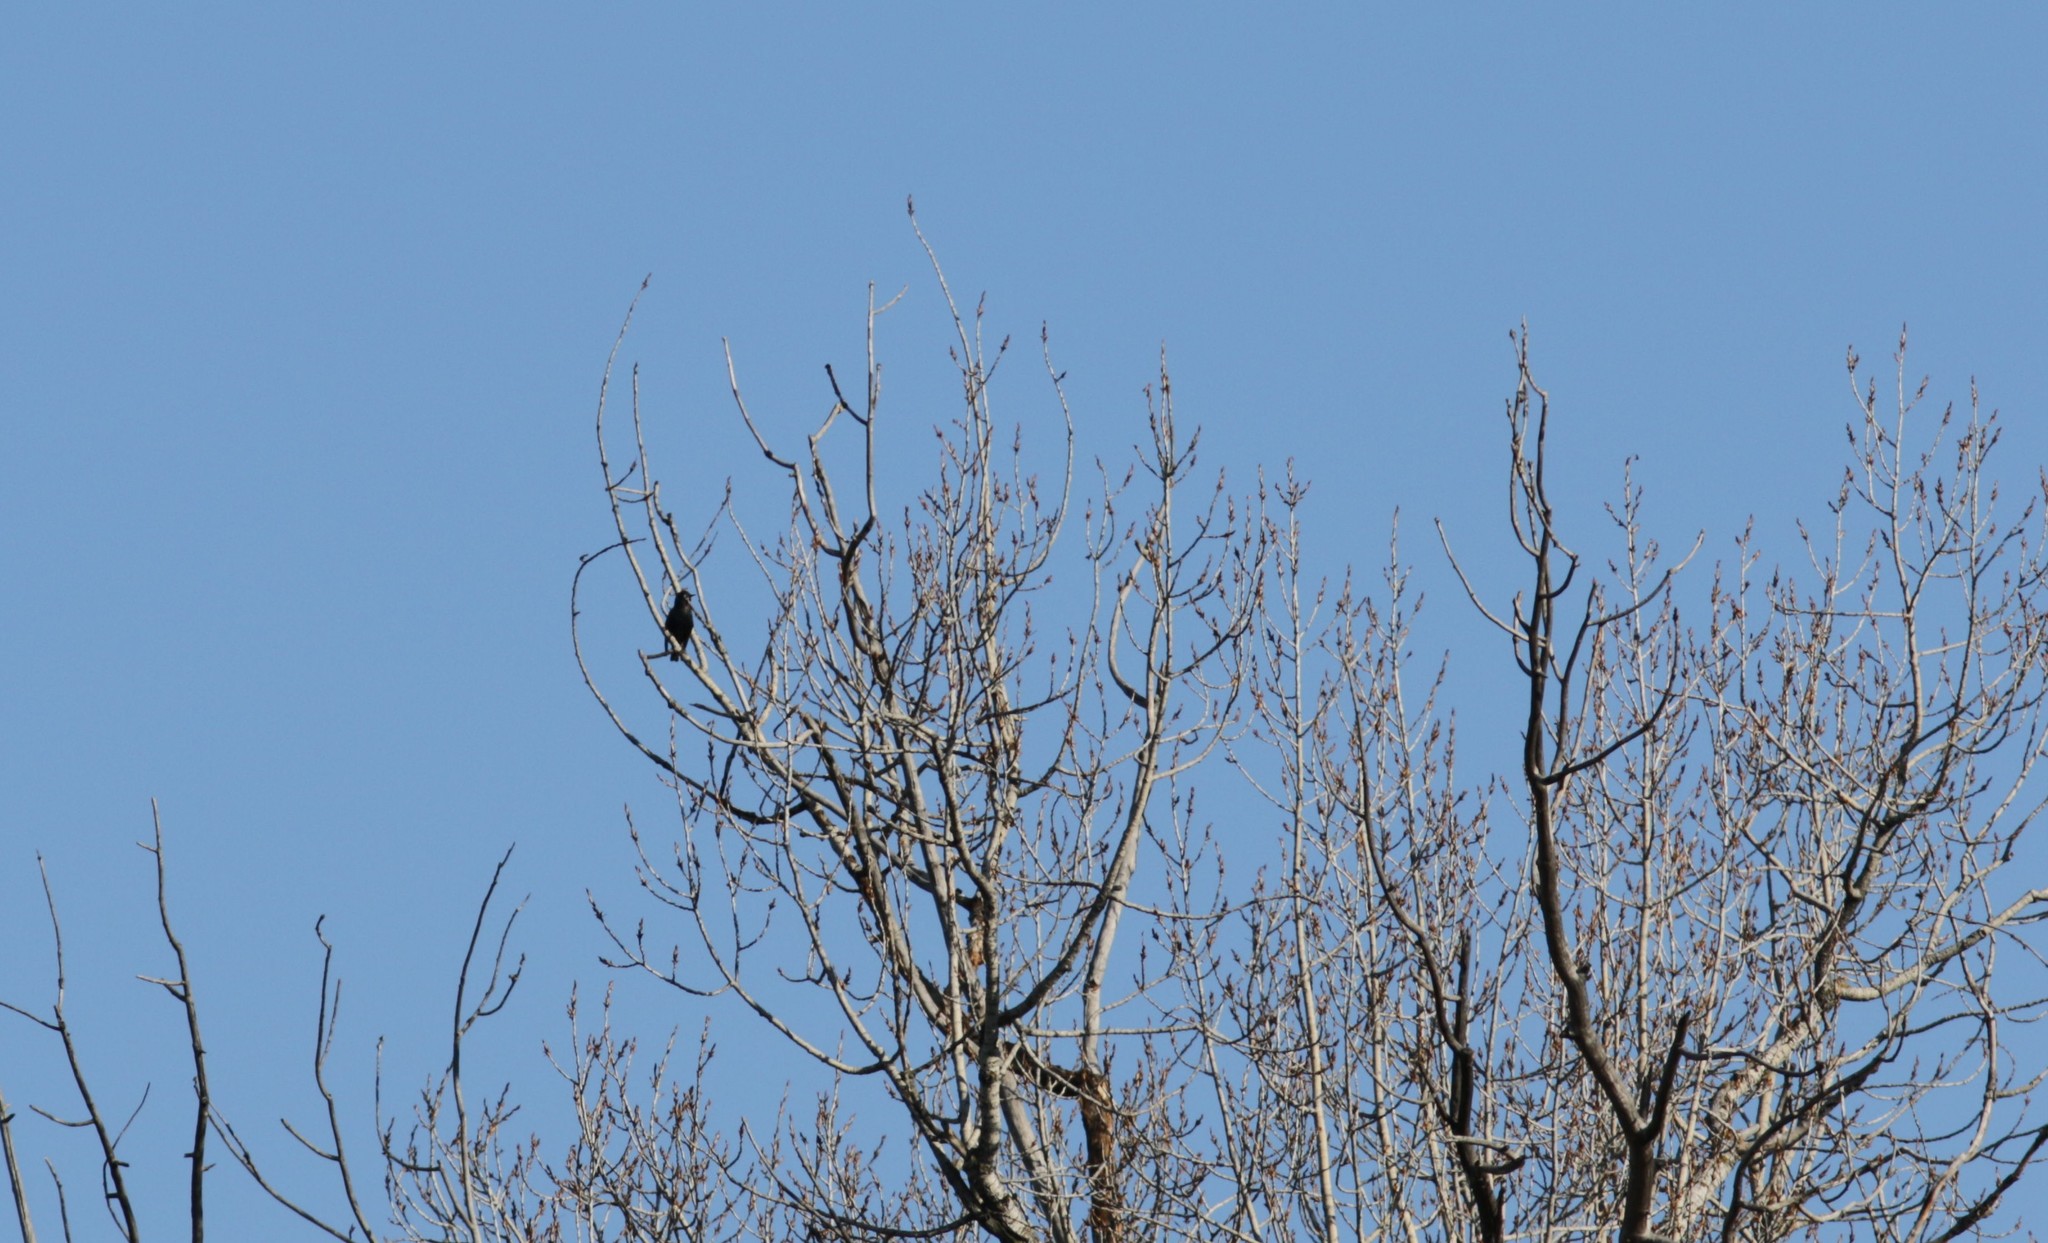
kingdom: Animalia
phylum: Chordata
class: Aves
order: Passeriformes
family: Sturnidae
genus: Sturnus
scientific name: Sturnus vulgaris
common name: Common starling
